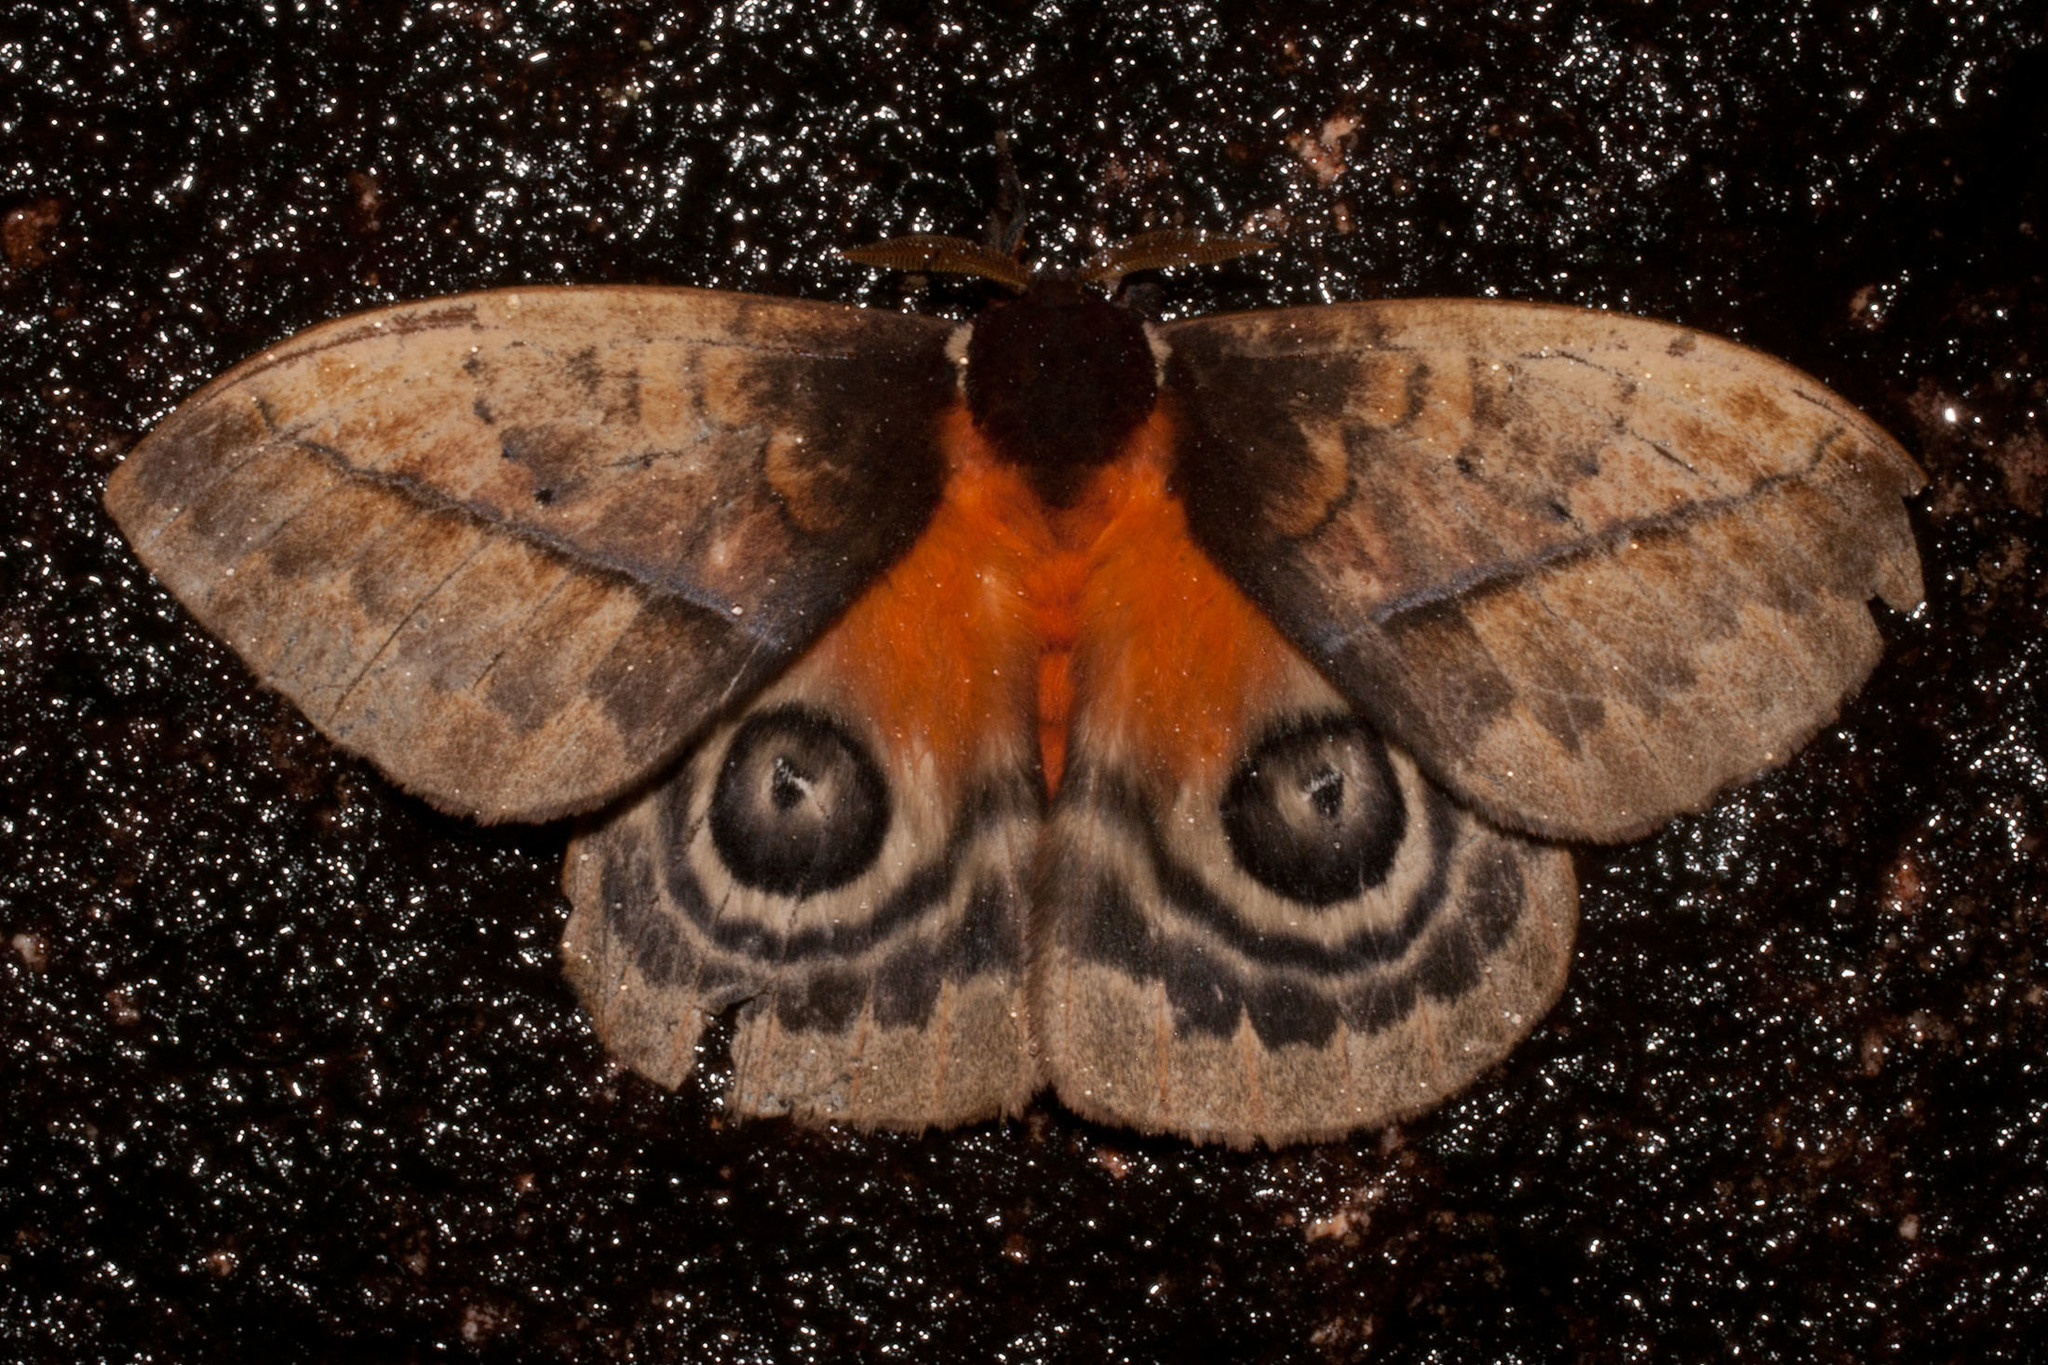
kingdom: Animalia
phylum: Arthropoda
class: Insecta
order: Lepidoptera
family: Saturniidae
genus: Automeris
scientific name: Automeris larra
